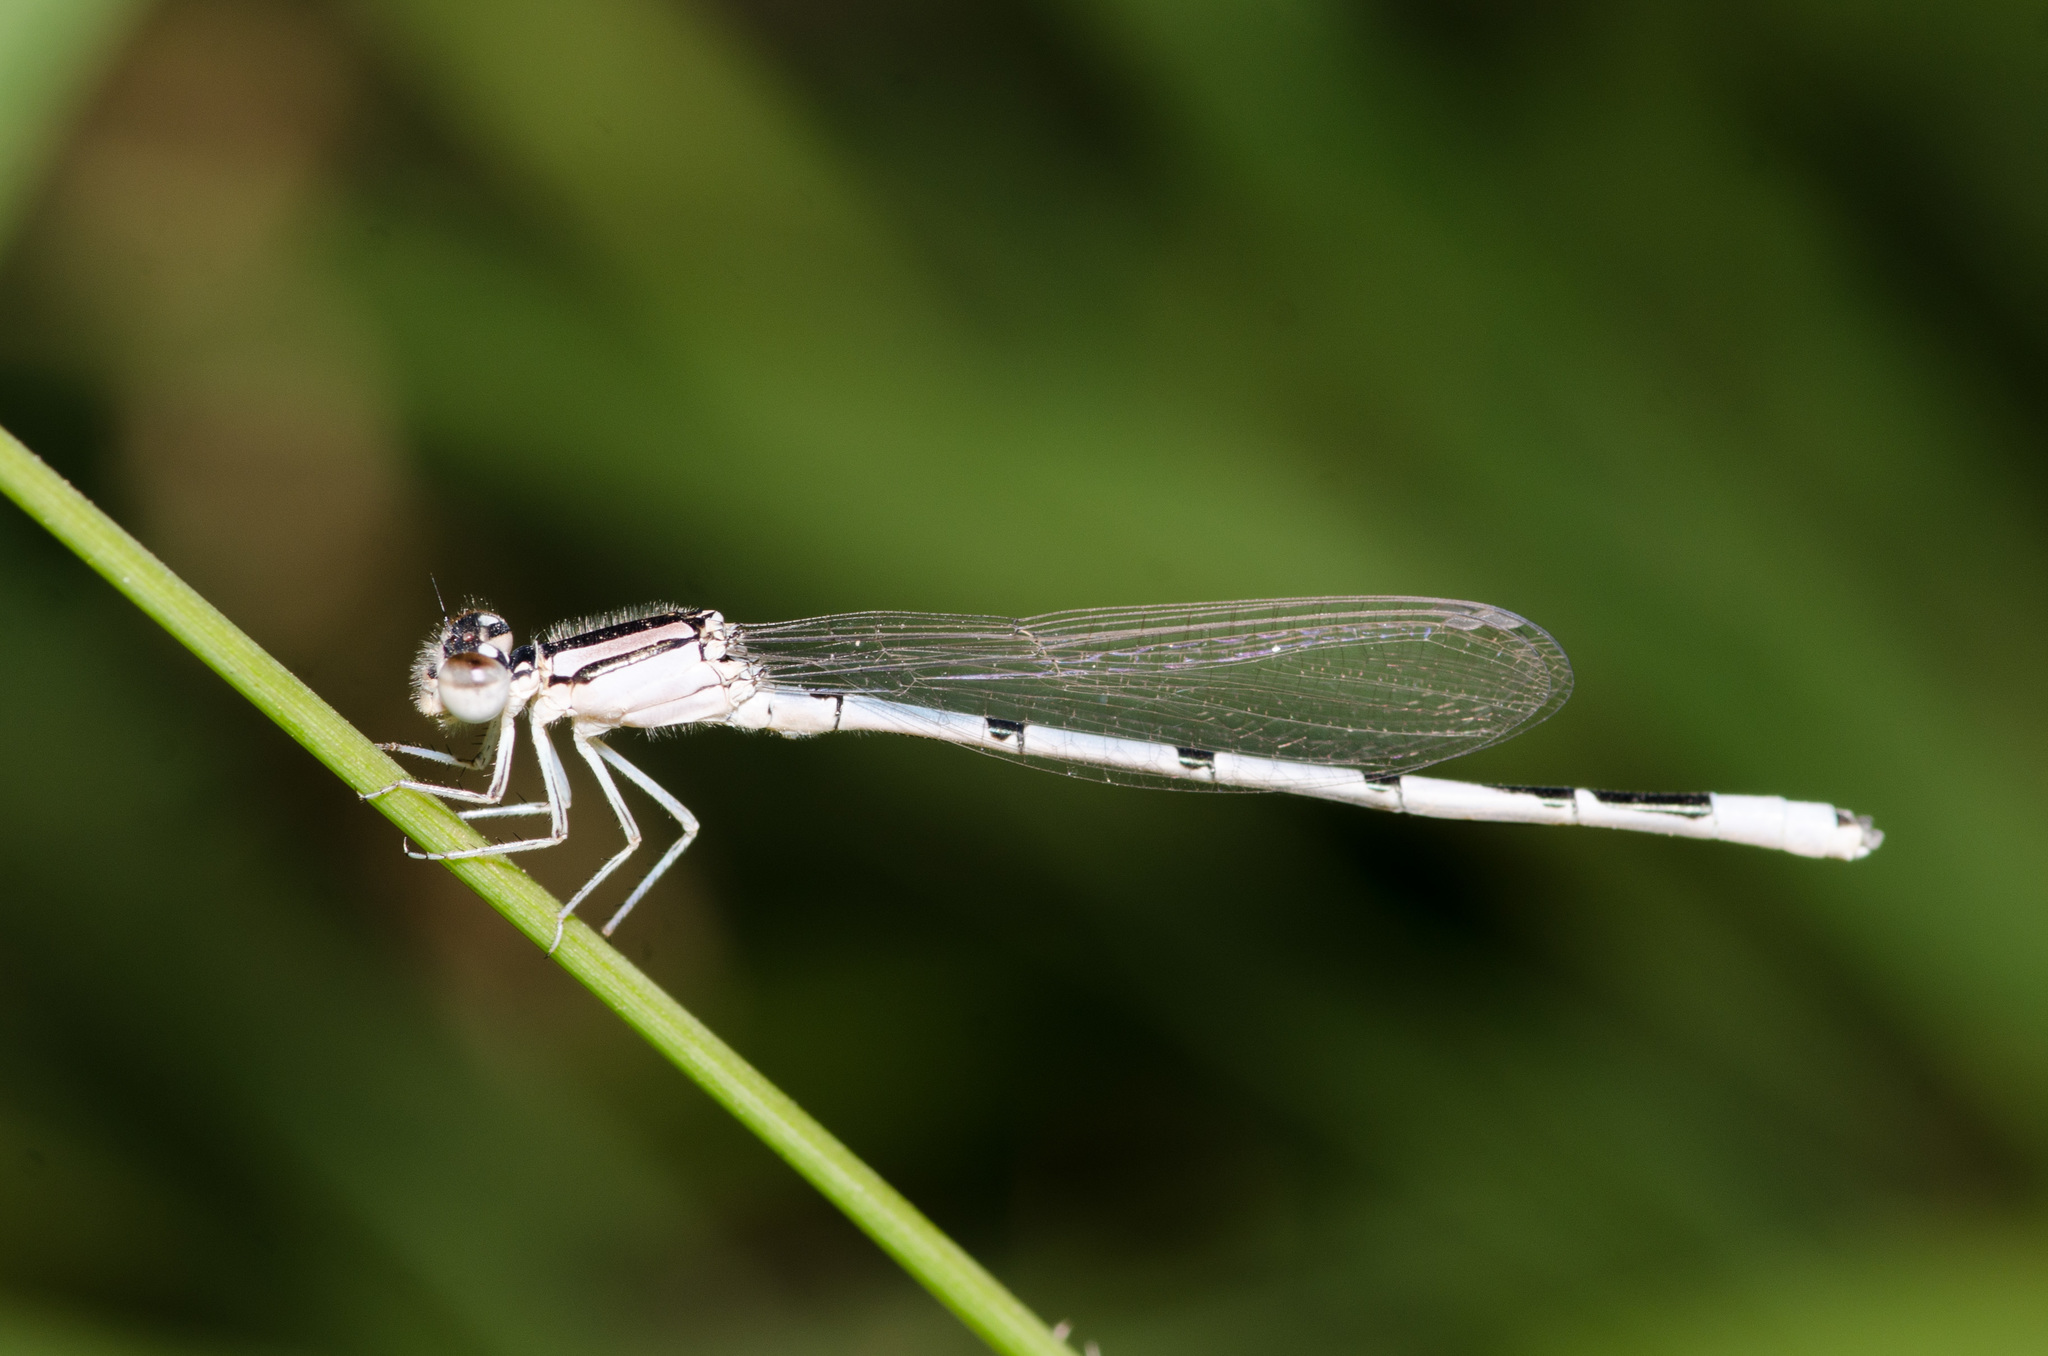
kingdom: Animalia
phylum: Arthropoda
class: Insecta
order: Odonata
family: Coenagrionidae
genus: Enallagma
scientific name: Enallagma civile
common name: Damselfly
